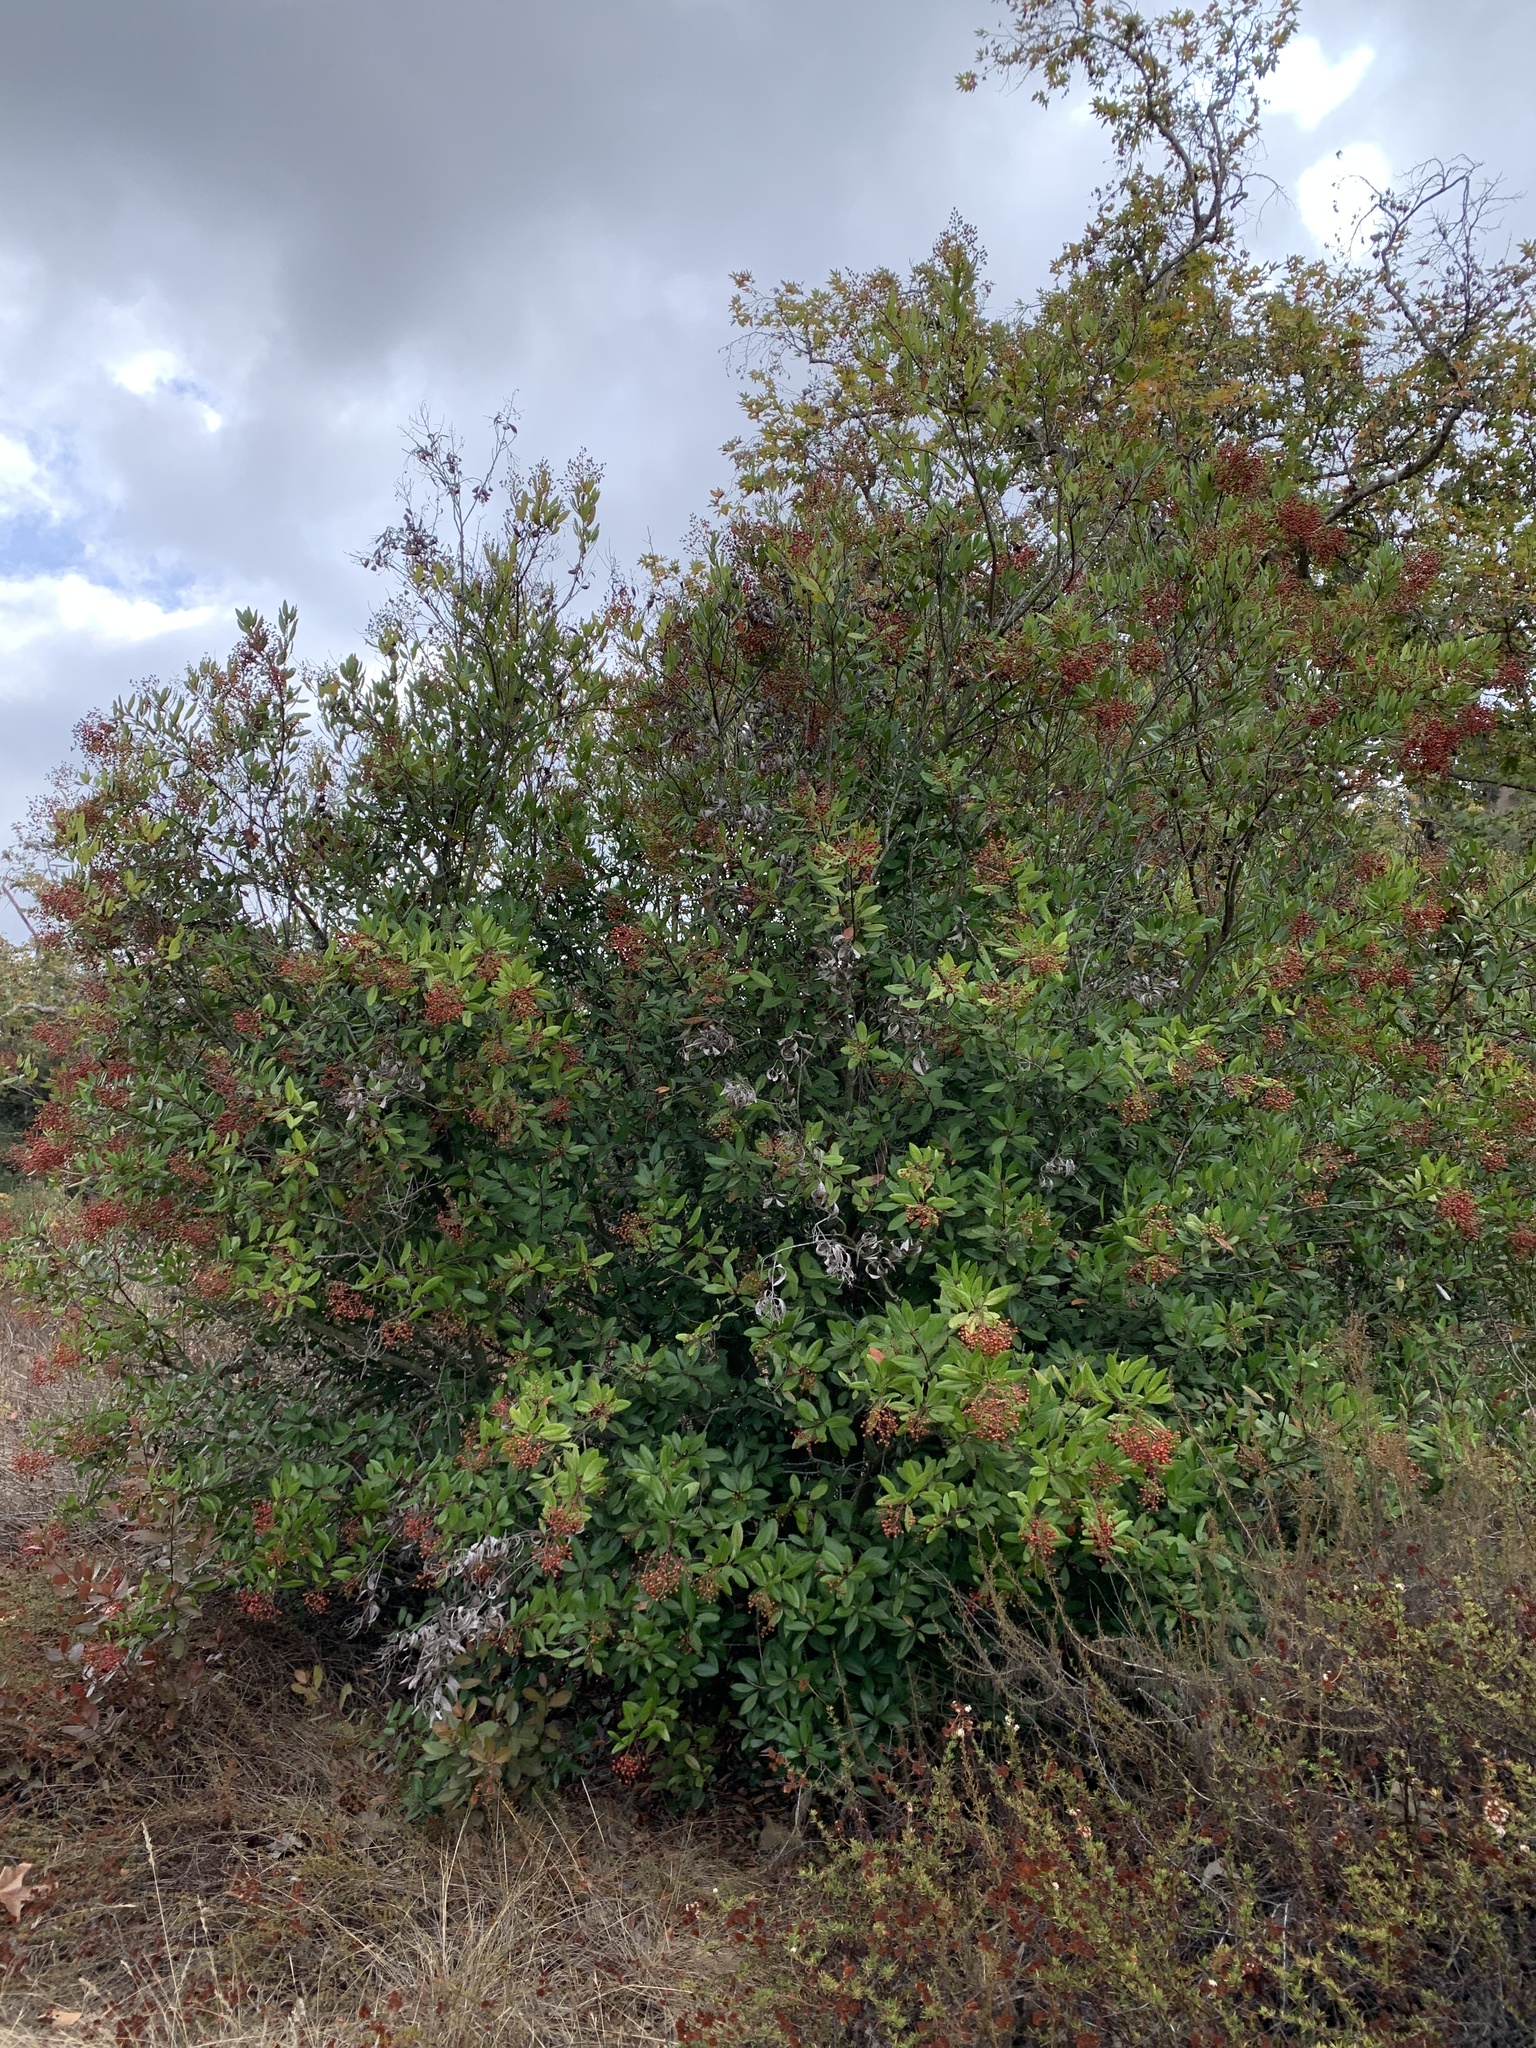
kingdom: Plantae
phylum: Tracheophyta
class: Magnoliopsida
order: Rosales
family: Rosaceae
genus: Heteromeles
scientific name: Heteromeles arbutifolia
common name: California-holly
